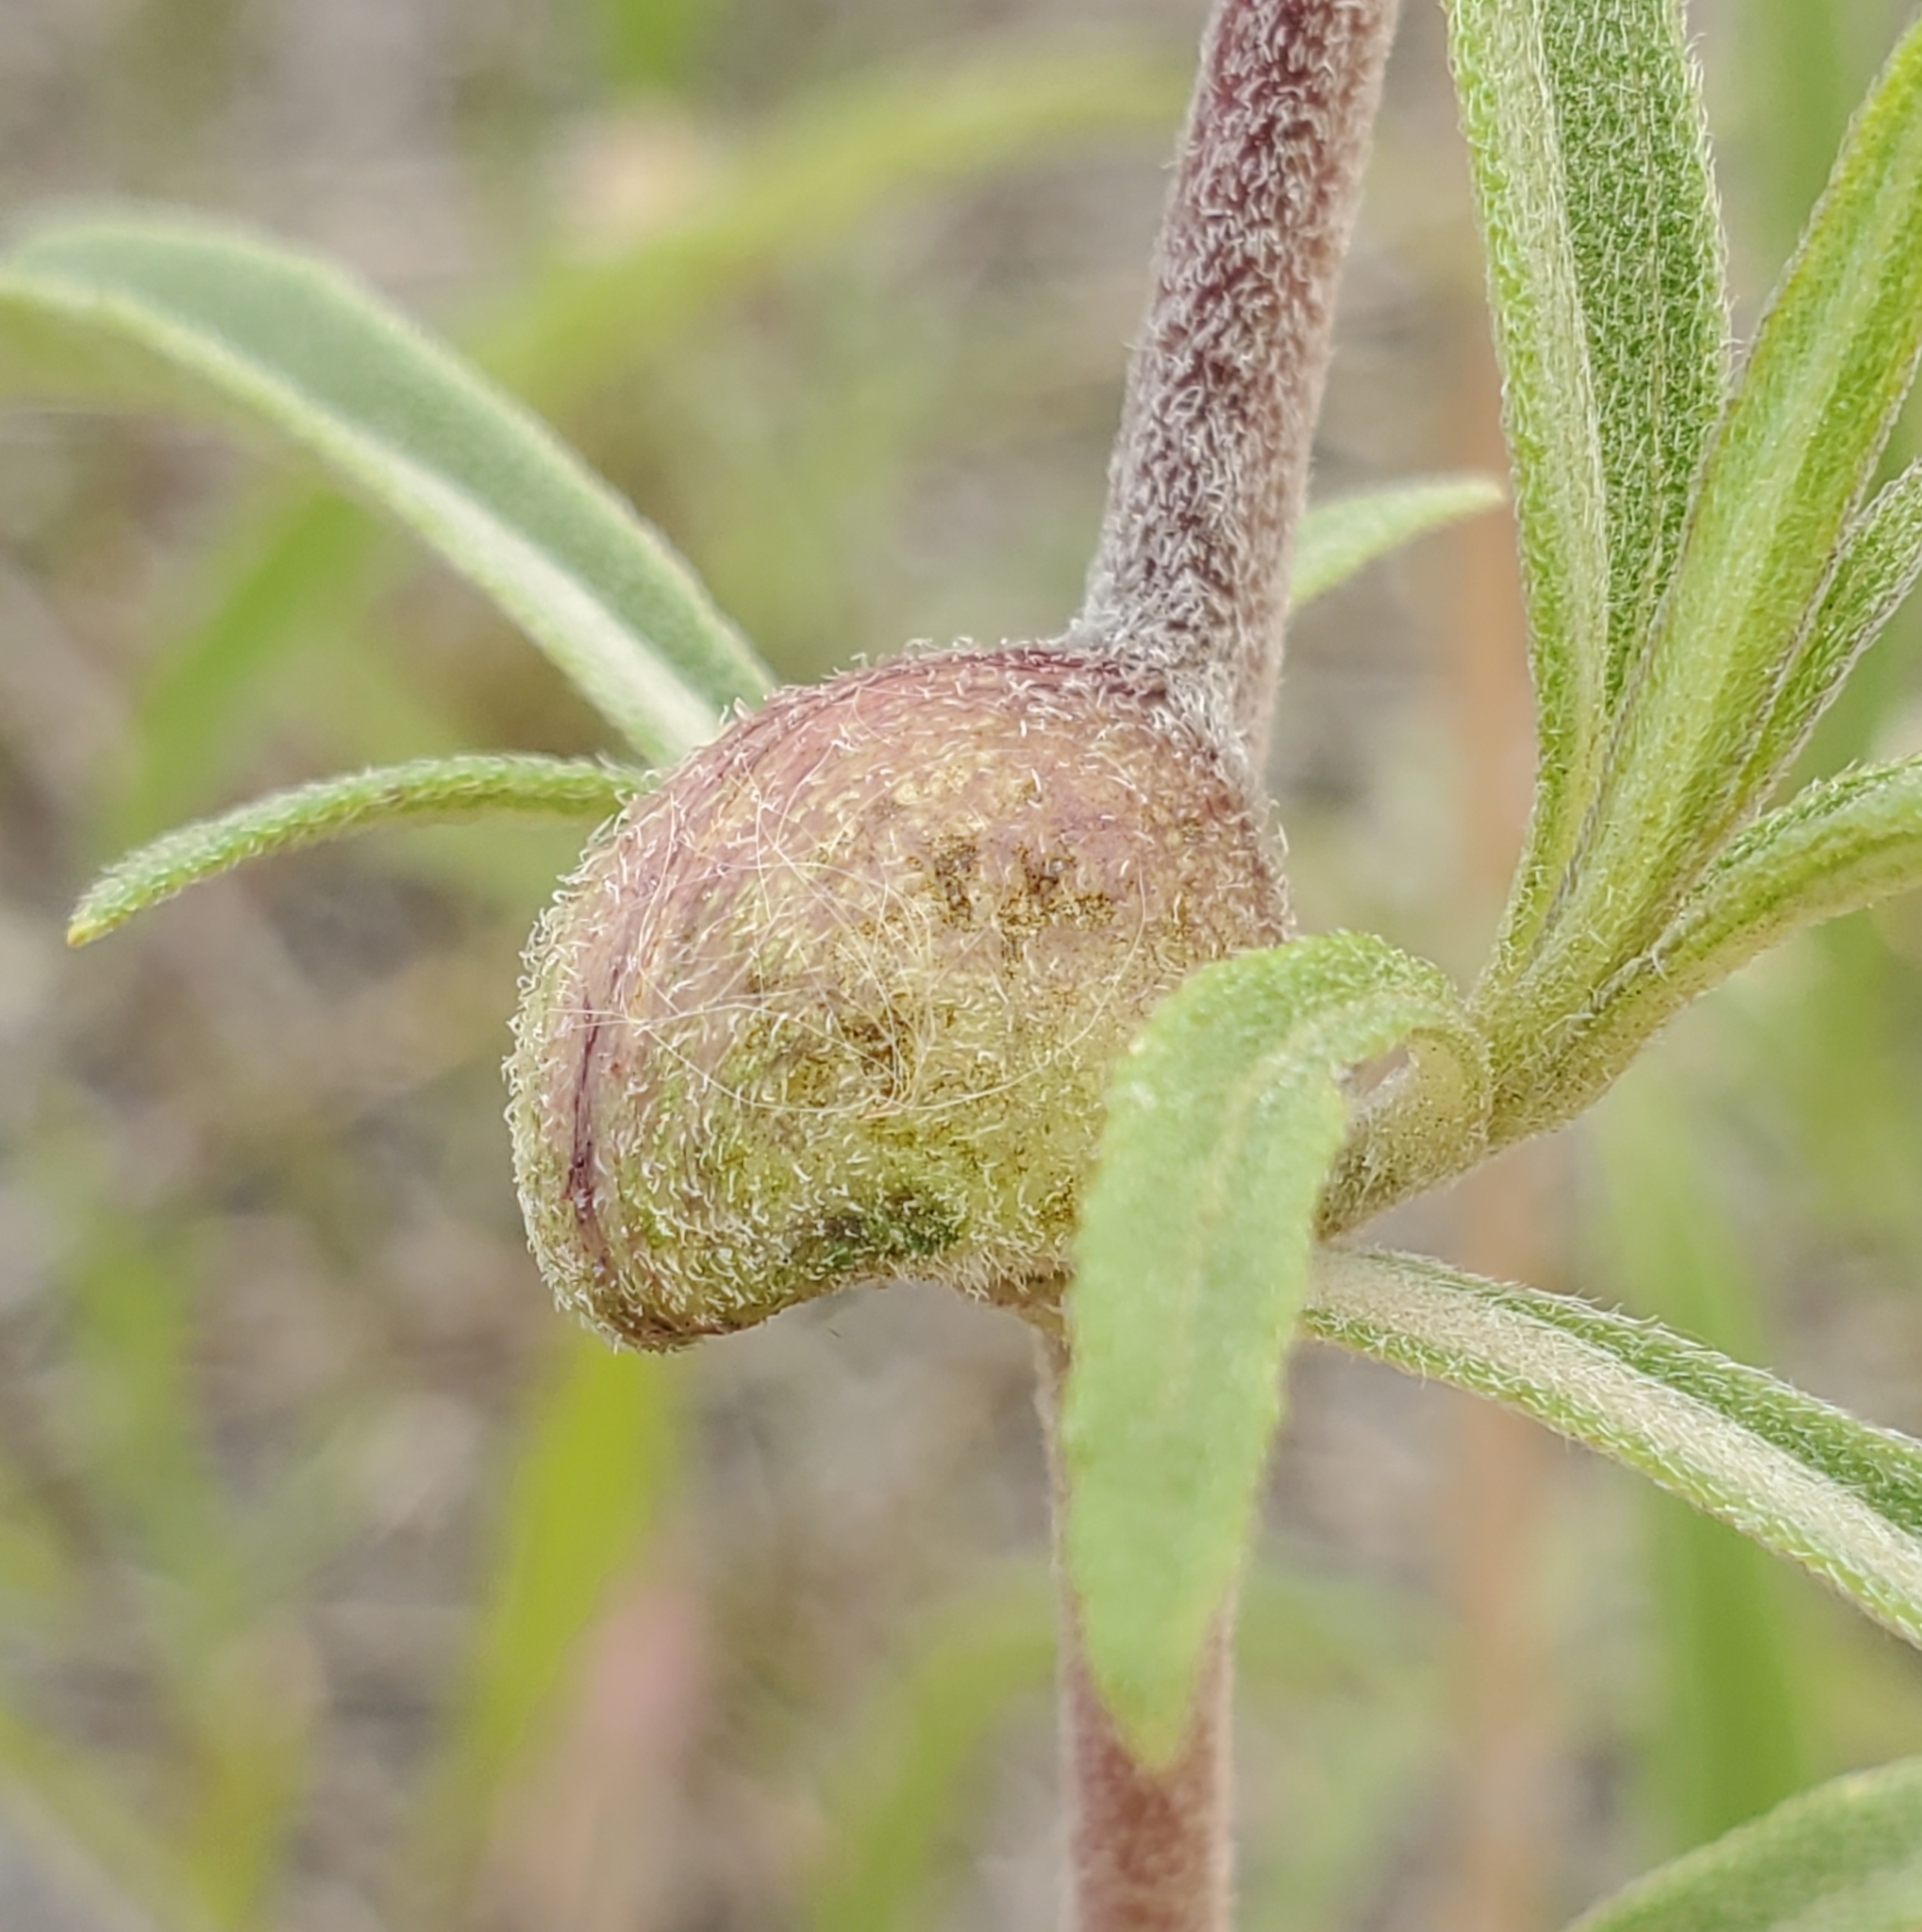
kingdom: Animalia
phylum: Arthropoda
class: Insecta
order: Diptera
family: Cecidomyiidae
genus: Asphondylia
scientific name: Asphondylia helianthiglobulus
